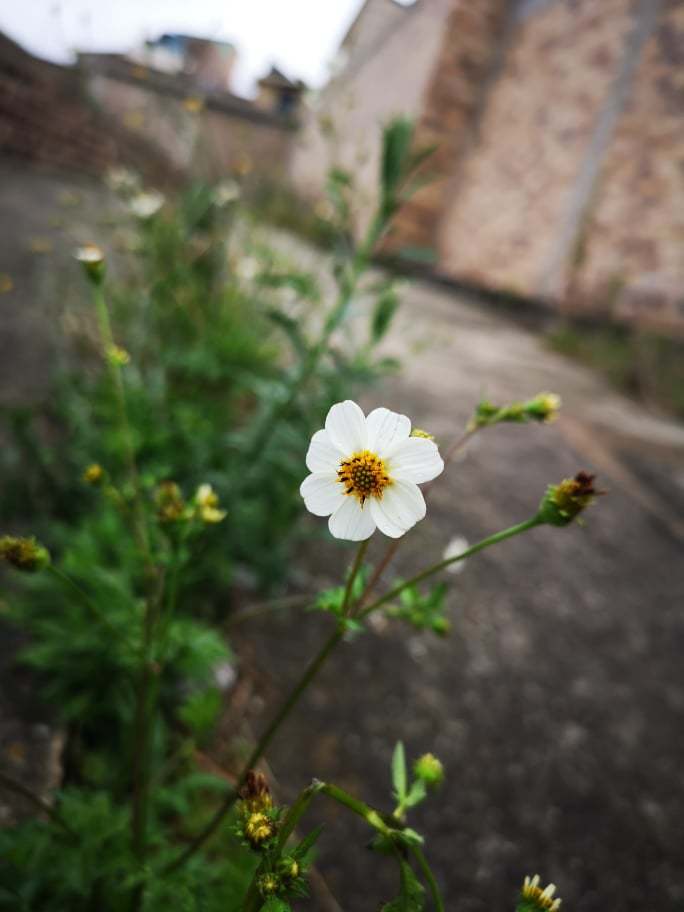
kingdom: Plantae
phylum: Tracheophyta
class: Magnoliopsida
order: Asterales
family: Asteraceae
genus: Bidens
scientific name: Bidens alba
